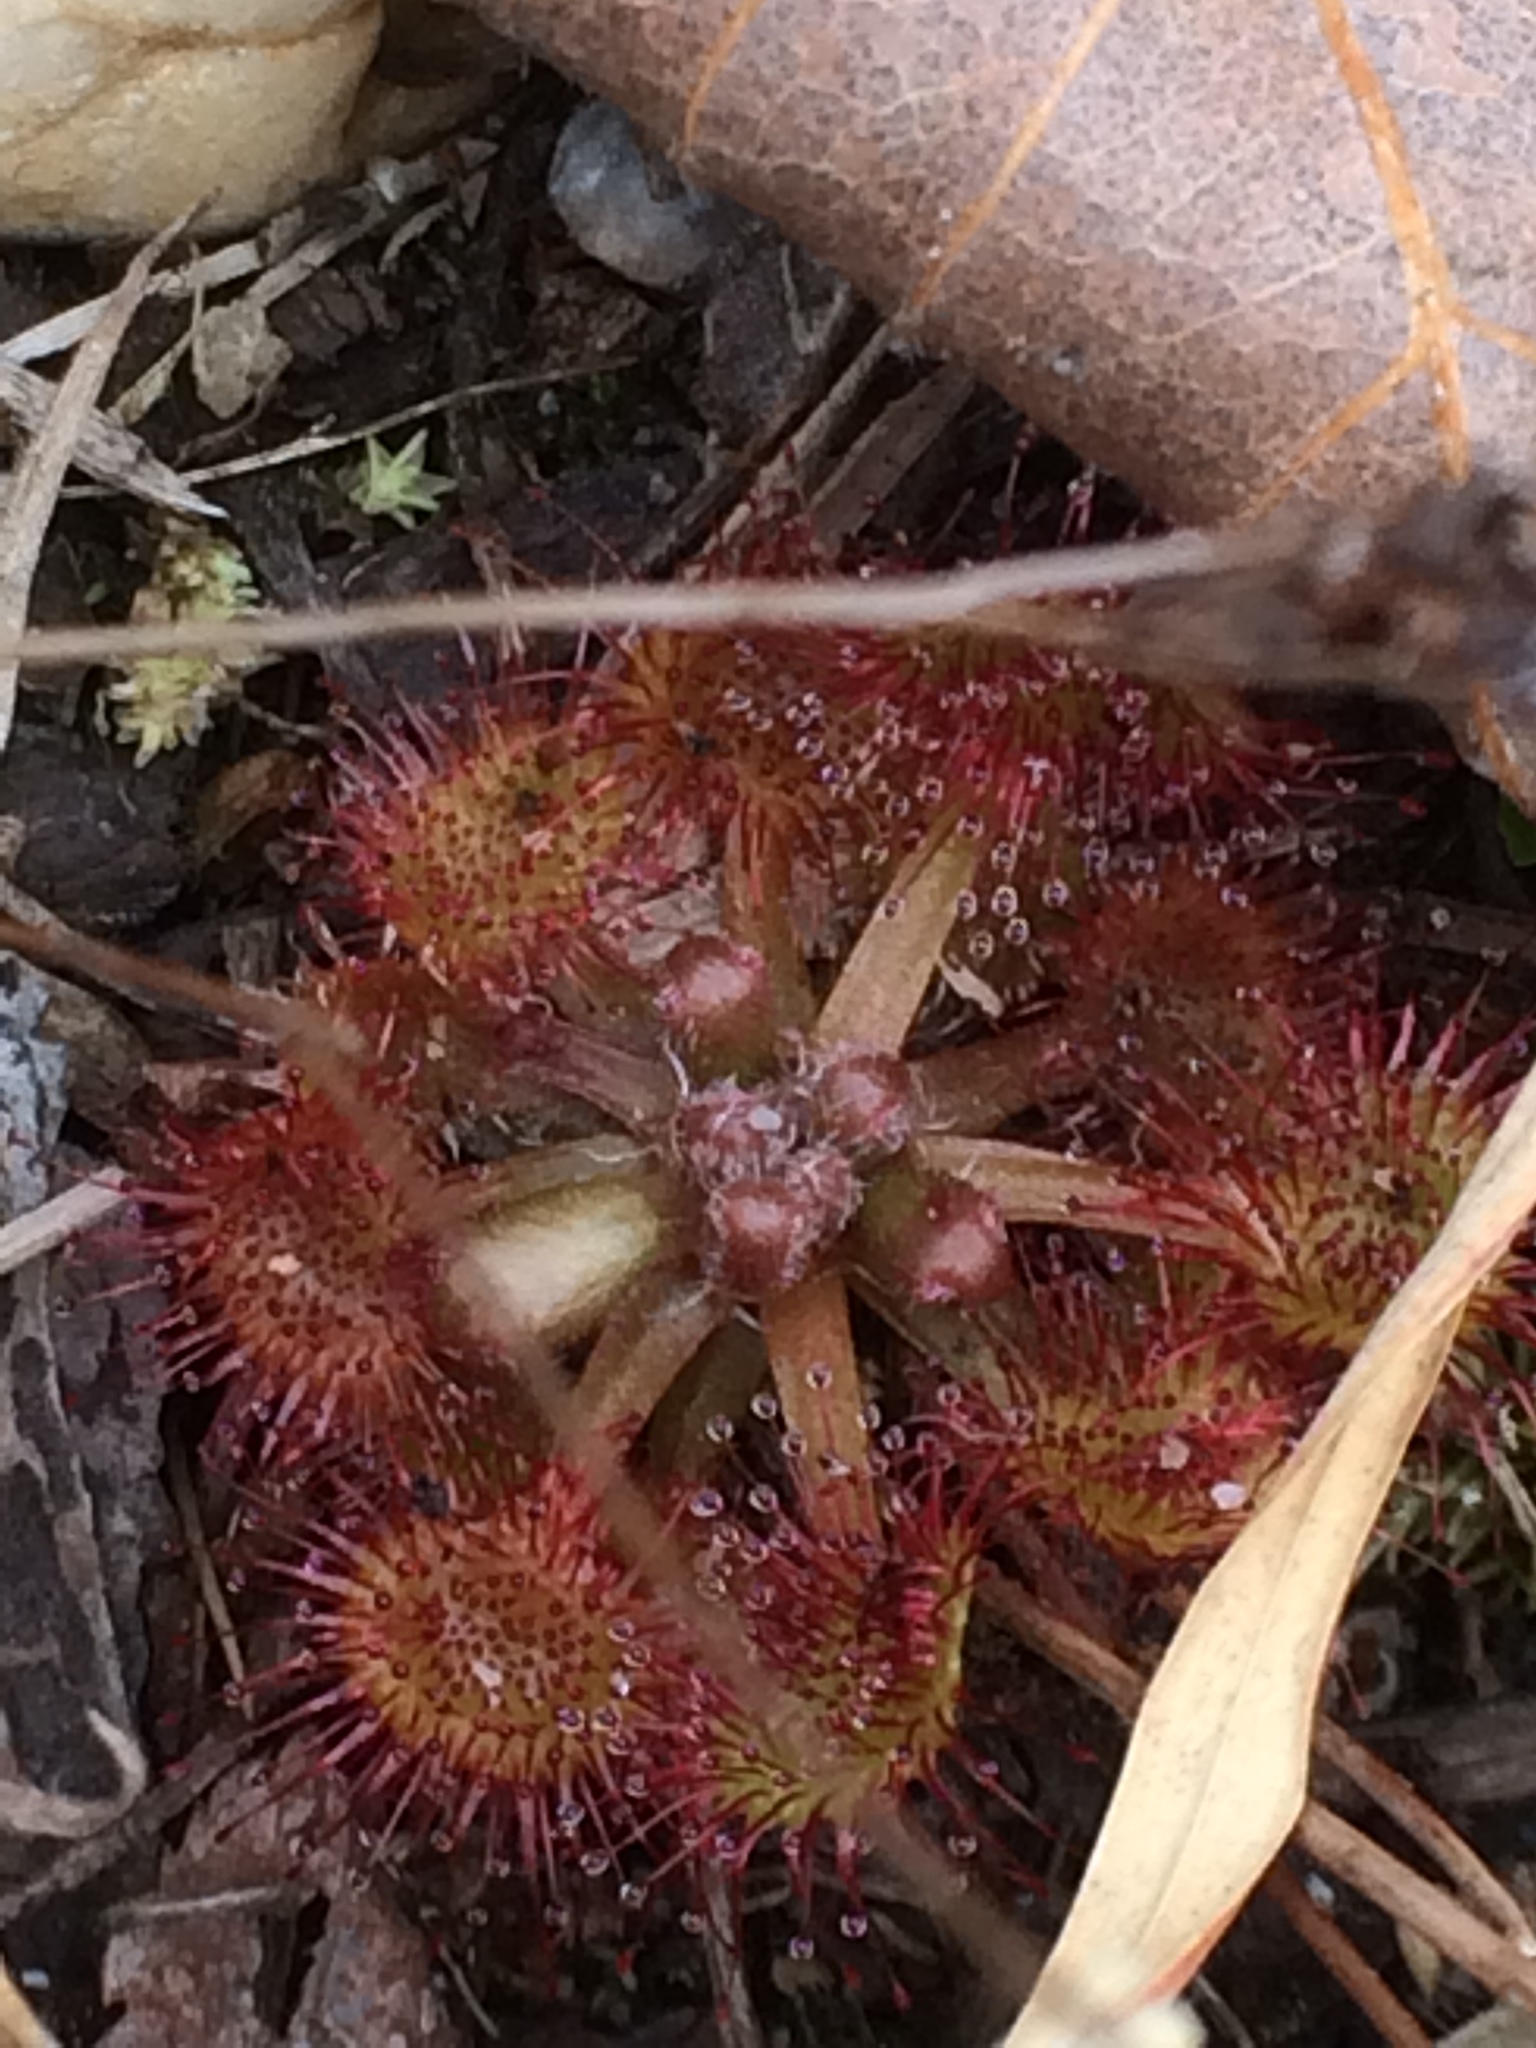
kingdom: Plantae
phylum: Tracheophyta
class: Magnoliopsida
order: Caryophyllales
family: Droseraceae
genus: Drosera
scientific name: Drosera rotundifolia
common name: Round-leaved sundew
